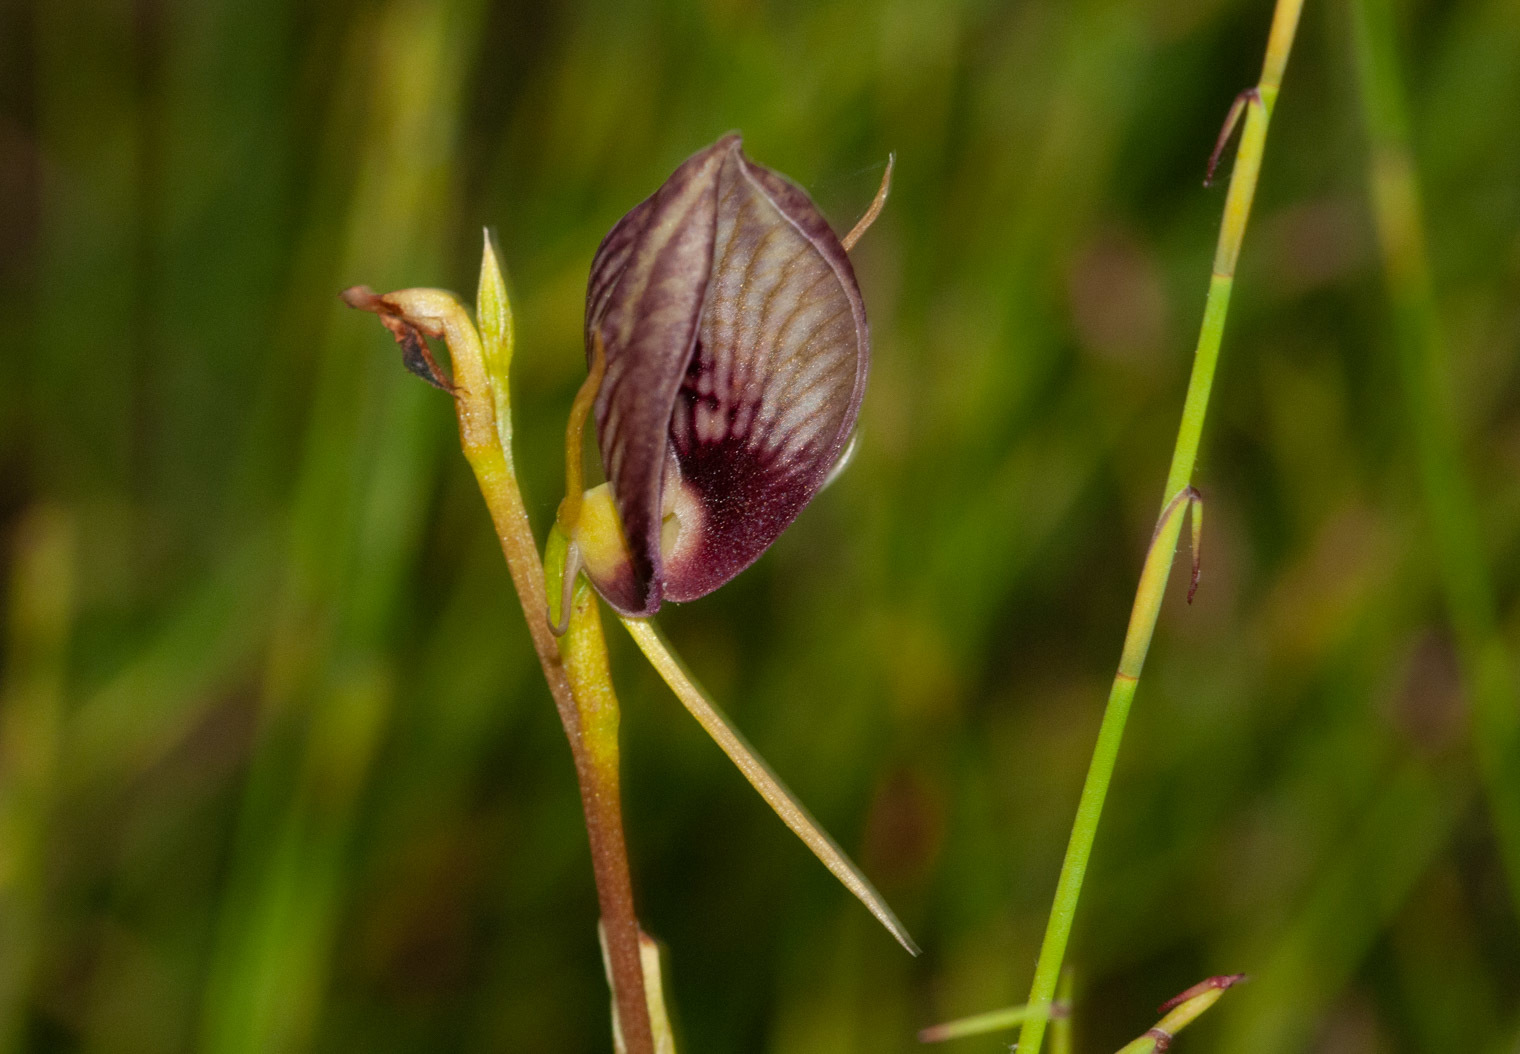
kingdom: Plantae
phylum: Tracheophyta
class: Liliopsida
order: Asparagales
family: Orchidaceae
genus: Cryptostylis
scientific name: Cryptostylis erecta
